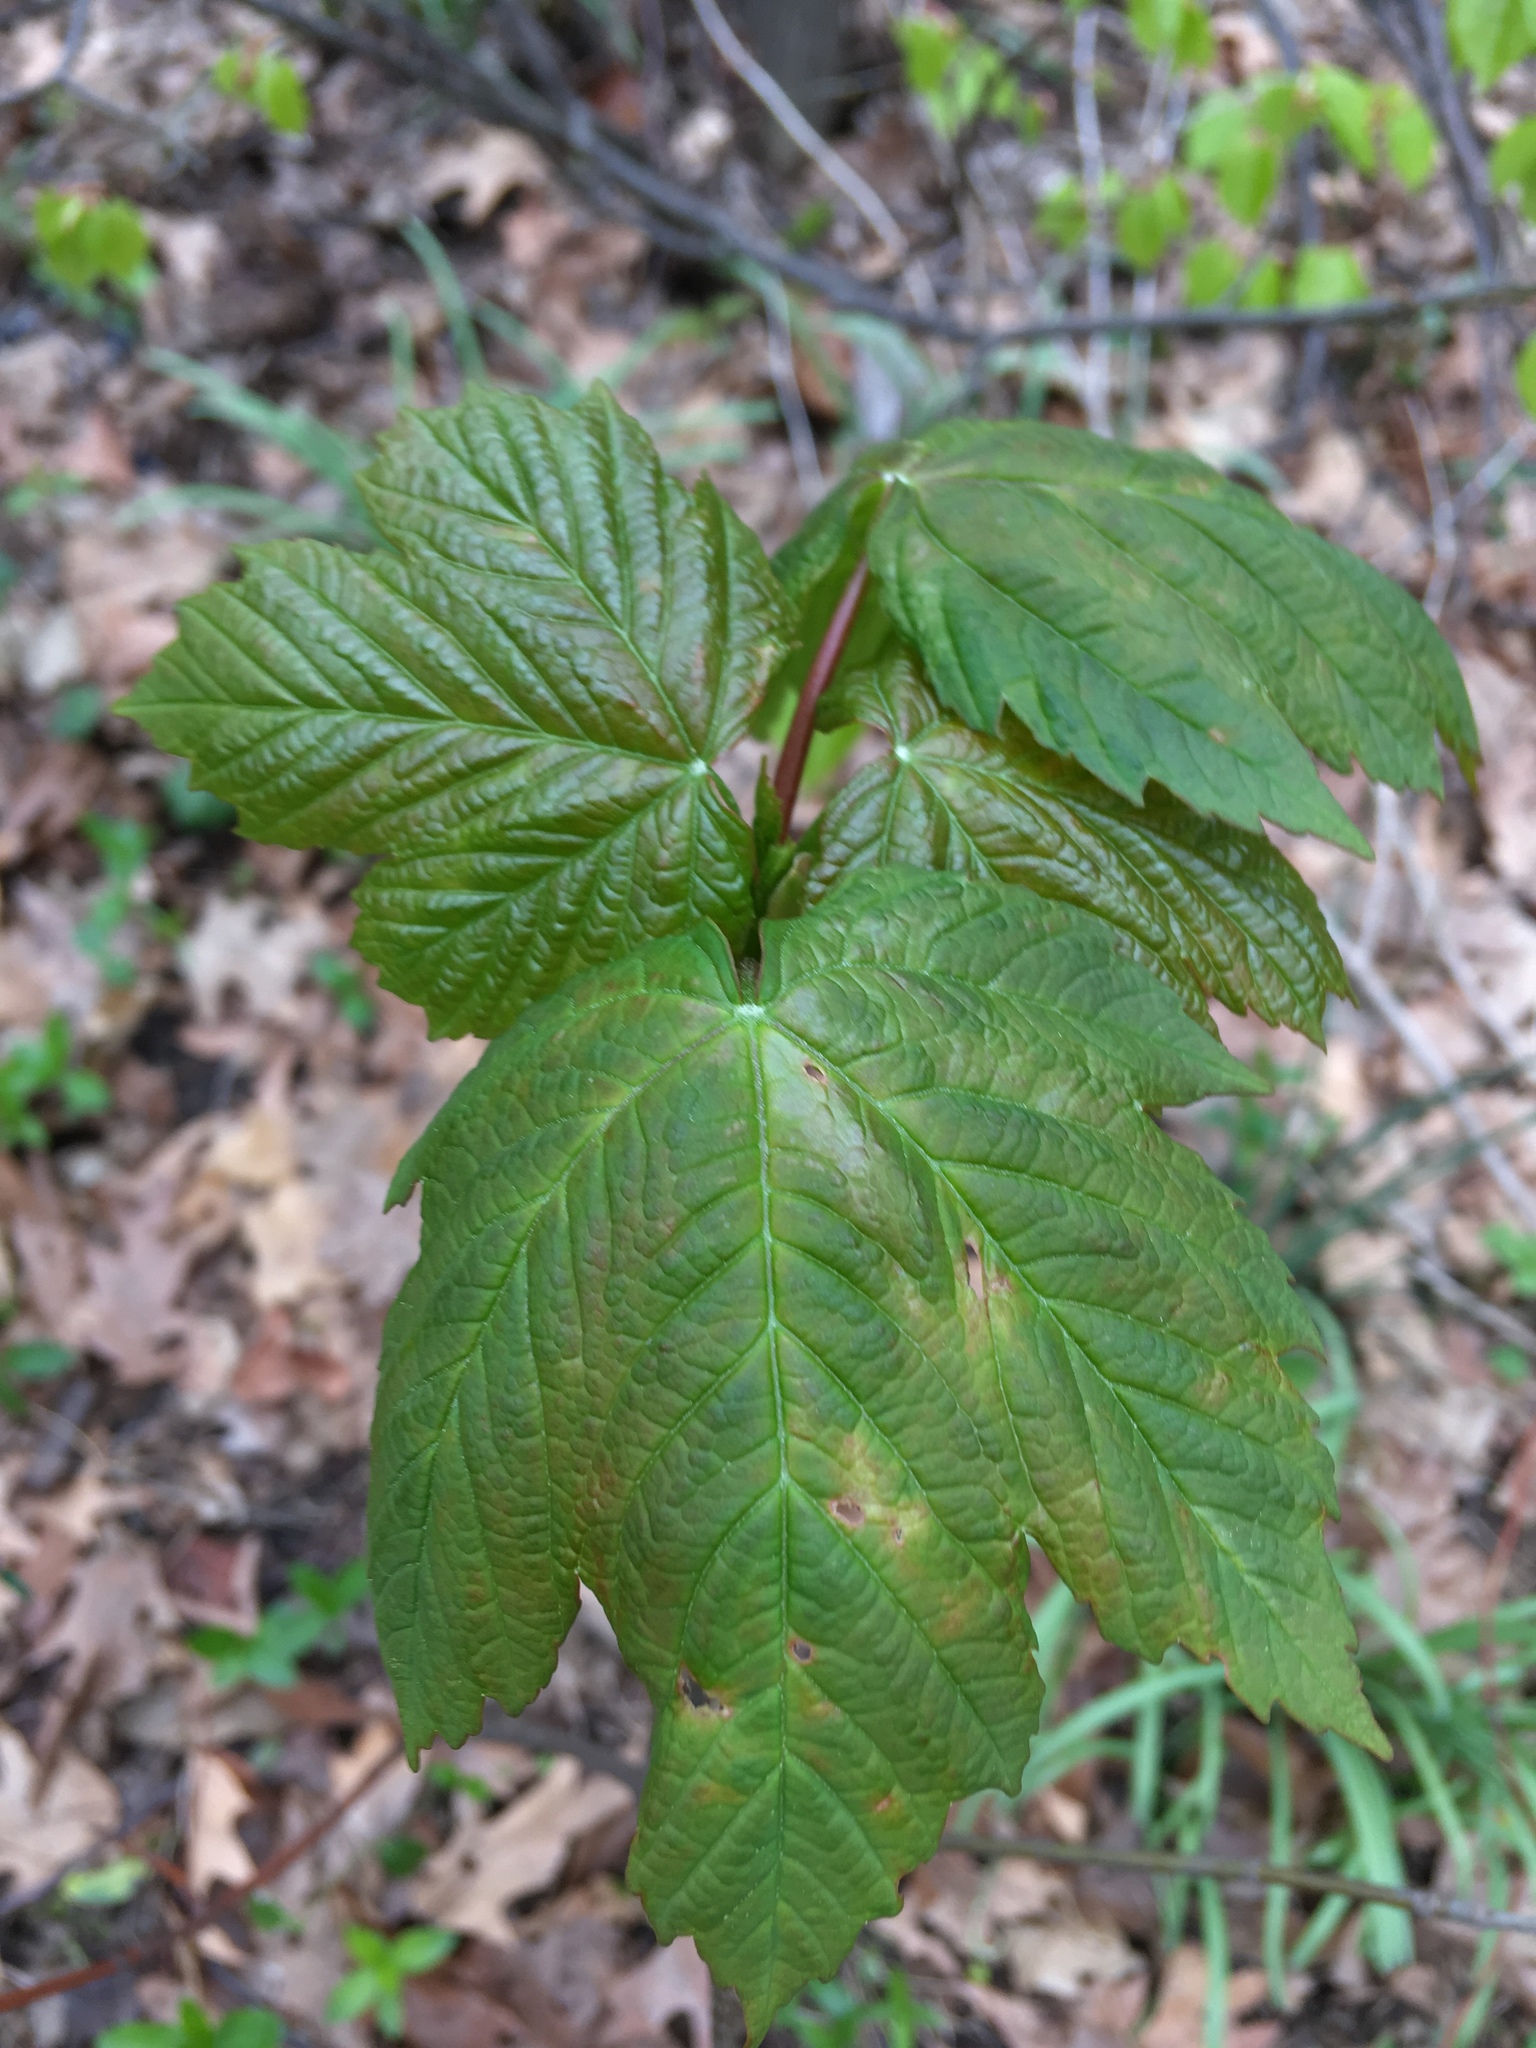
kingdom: Plantae
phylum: Tracheophyta
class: Magnoliopsida
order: Sapindales
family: Sapindaceae
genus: Acer
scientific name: Acer pseudoplatanus
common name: Sycamore
